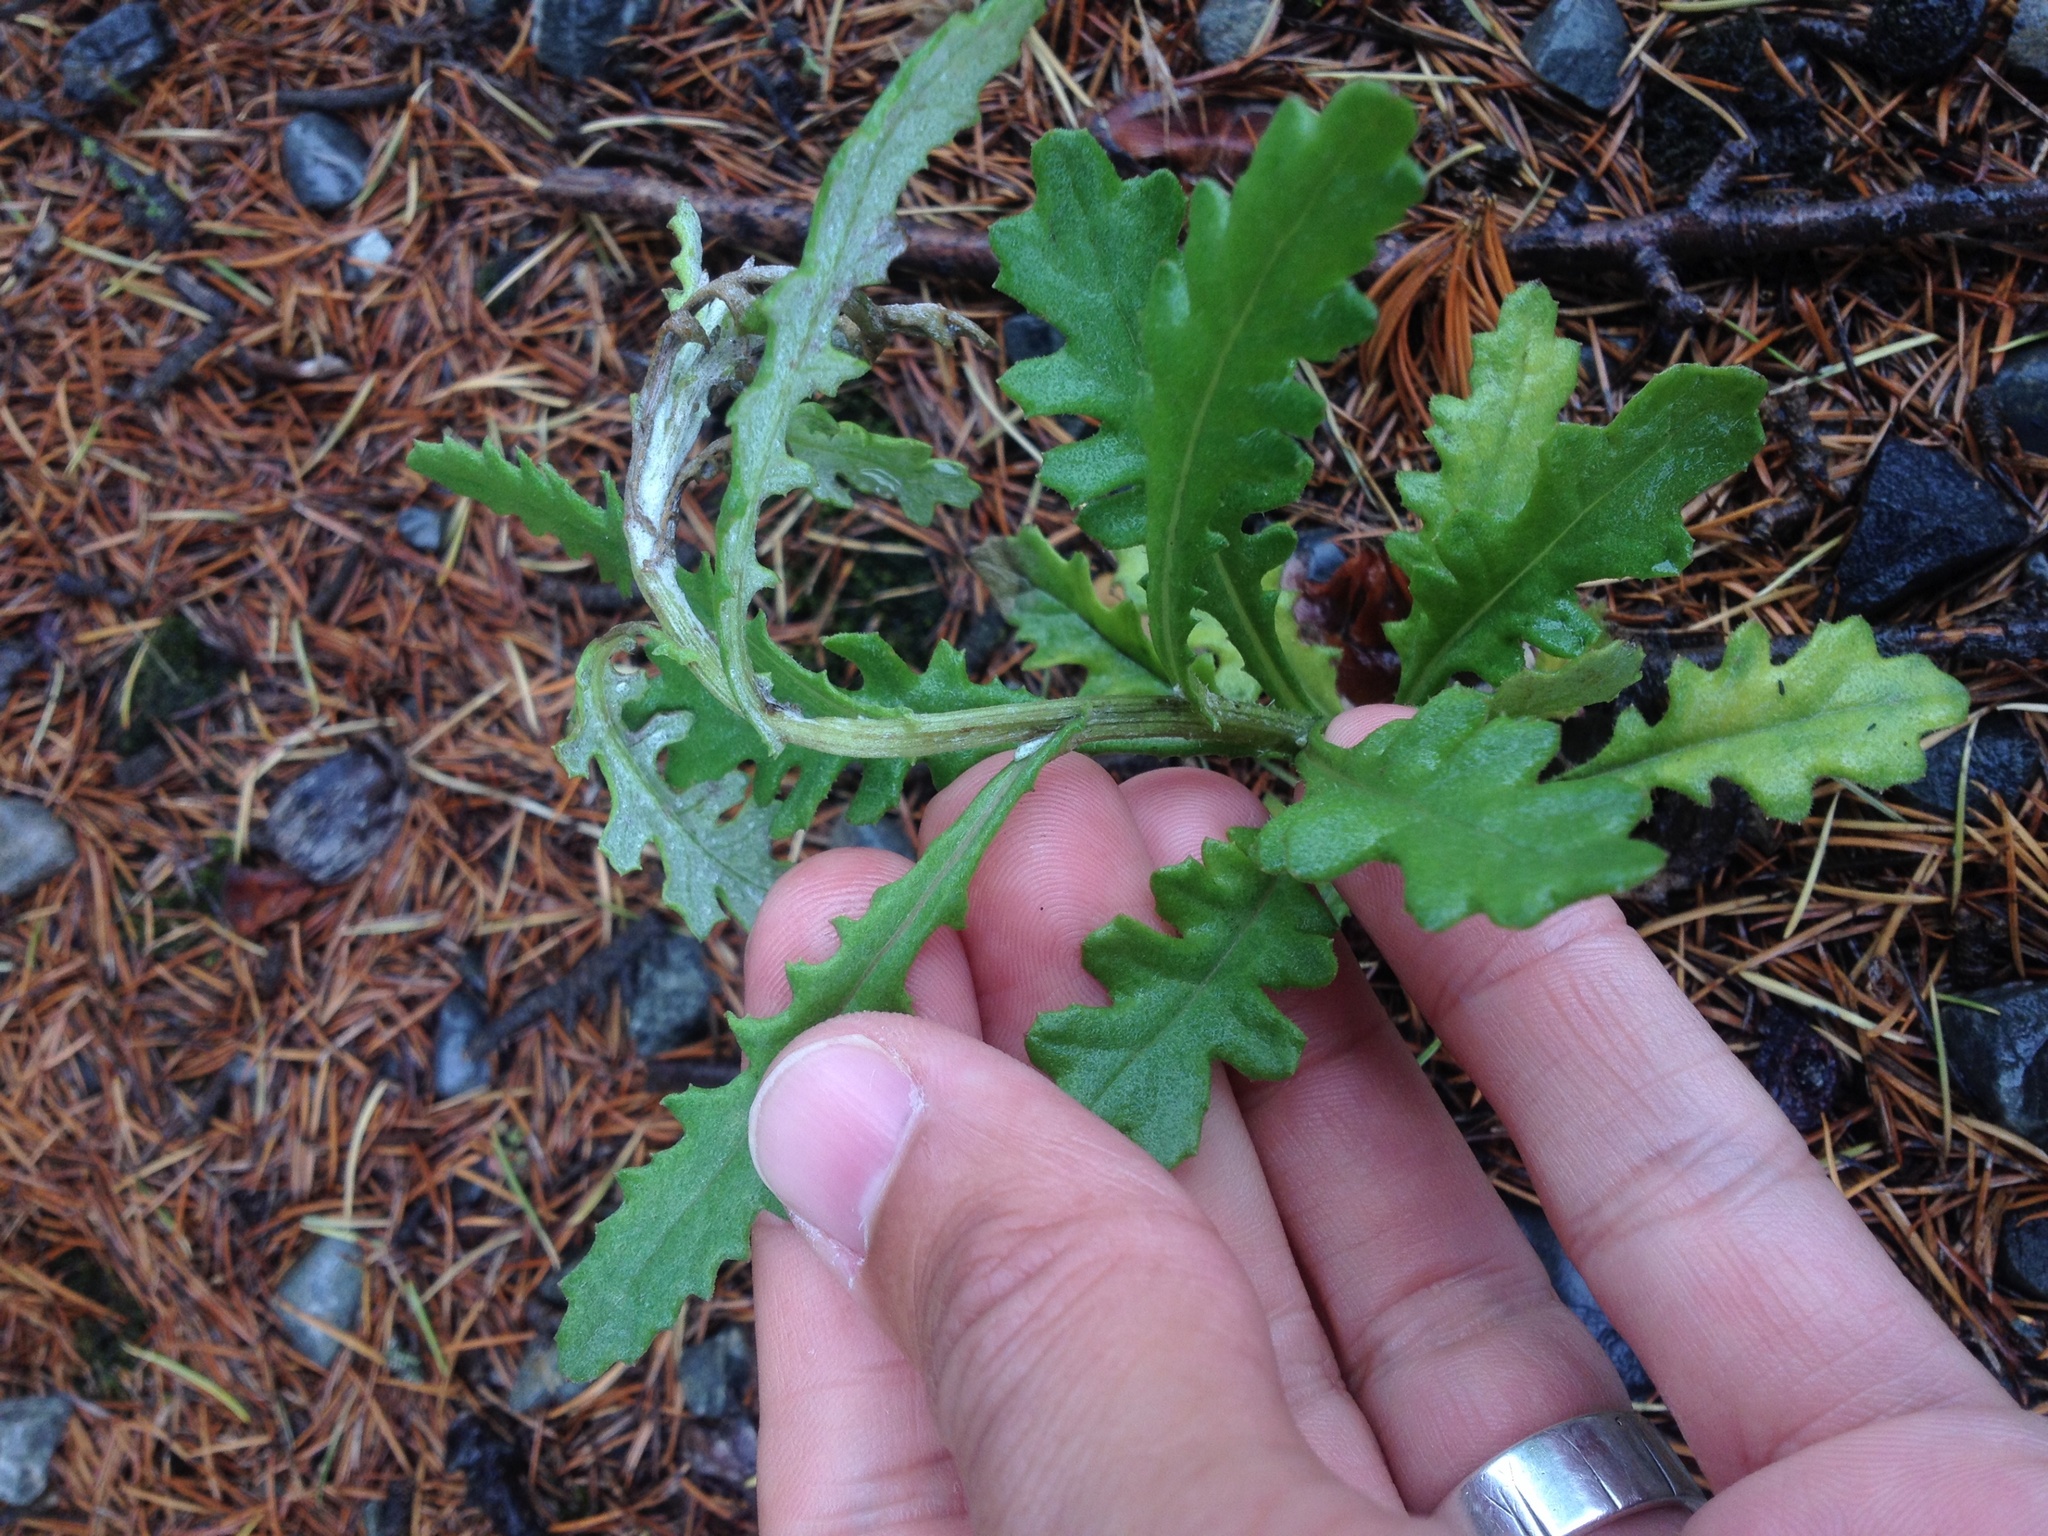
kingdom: Plantae
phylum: Tracheophyta
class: Magnoliopsida
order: Asterales
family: Asteraceae
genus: Senecio
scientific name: Senecio glomeratus
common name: Cutleaf burnweed
